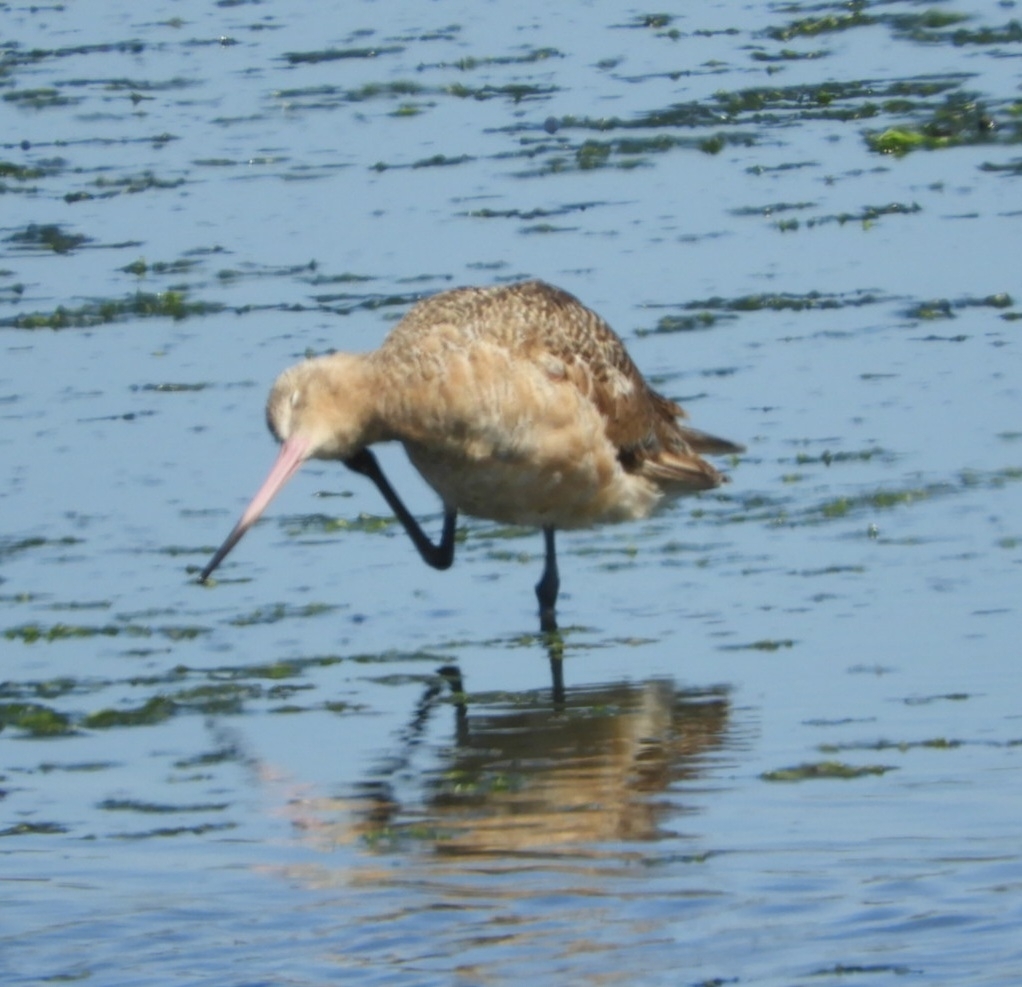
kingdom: Animalia
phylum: Chordata
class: Aves
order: Charadriiformes
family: Scolopacidae
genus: Limosa
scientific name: Limosa fedoa
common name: Marbled godwit
